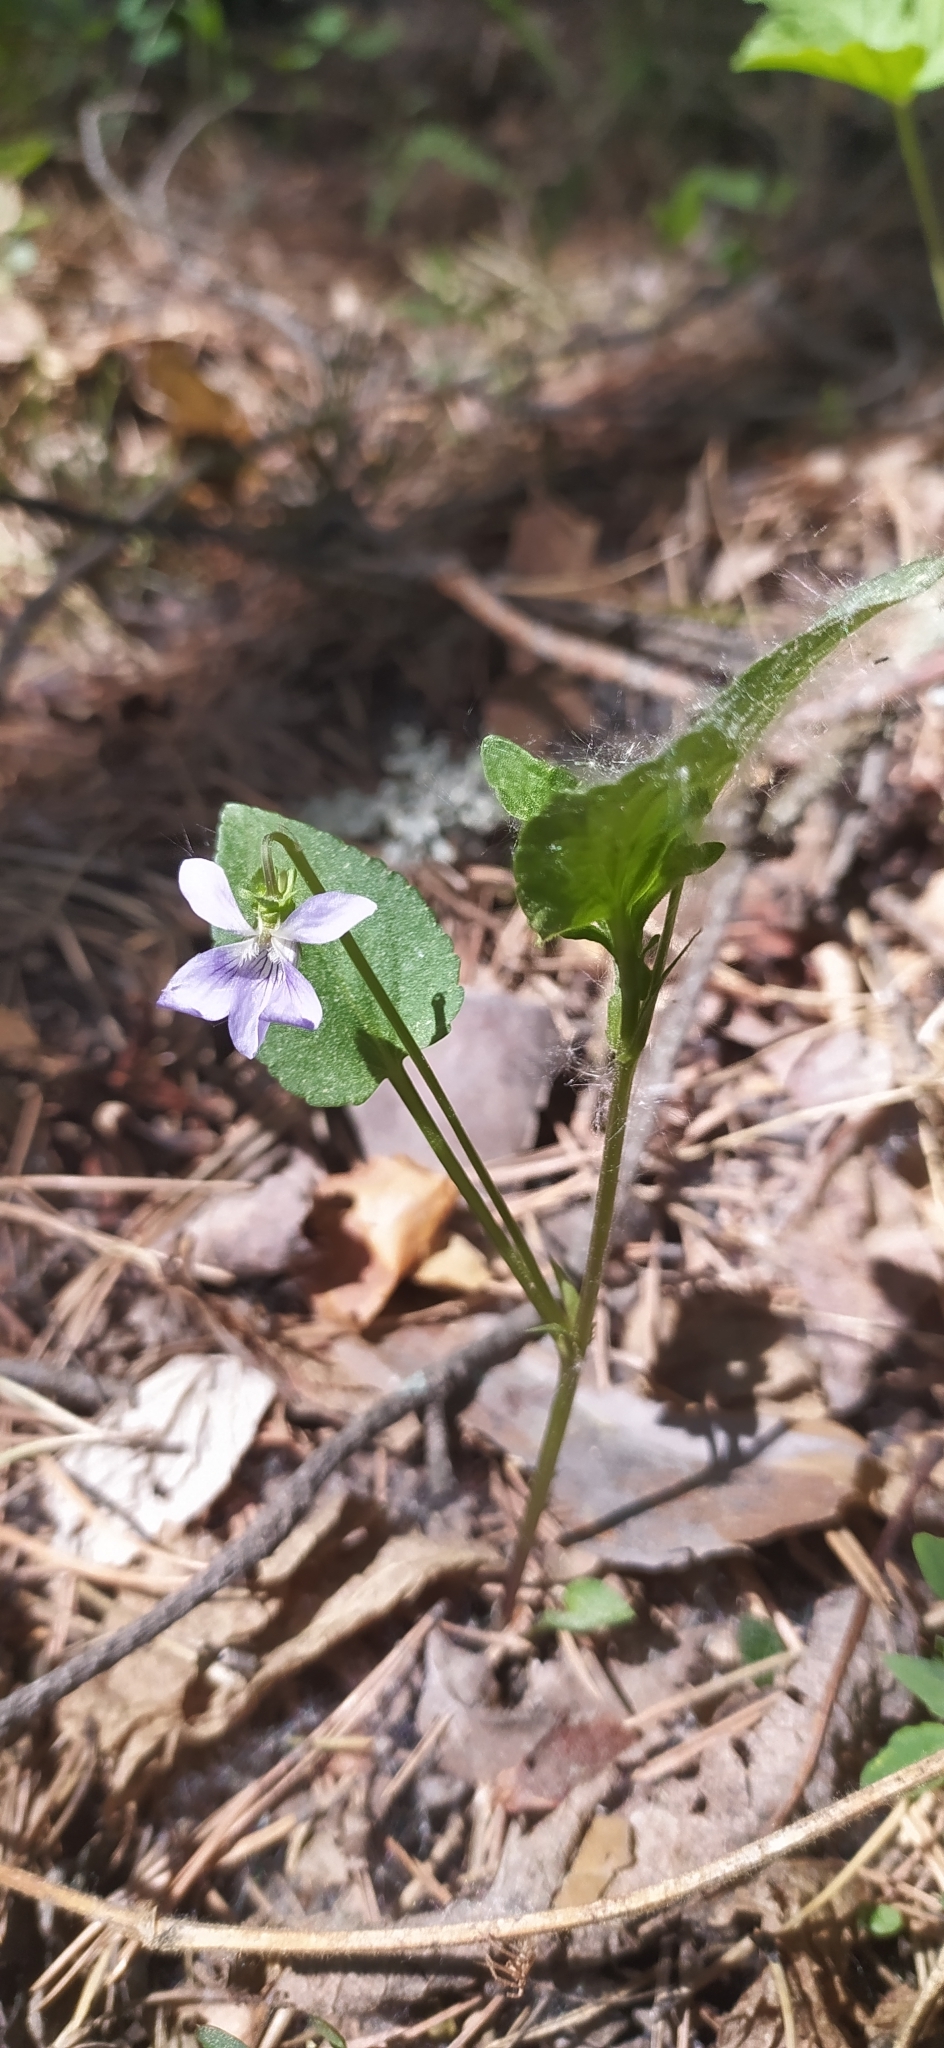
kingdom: Plantae
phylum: Tracheophyta
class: Magnoliopsida
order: Malpighiales
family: Violaceae
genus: Viola
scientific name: Viola canina
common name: Heath dog-violet
